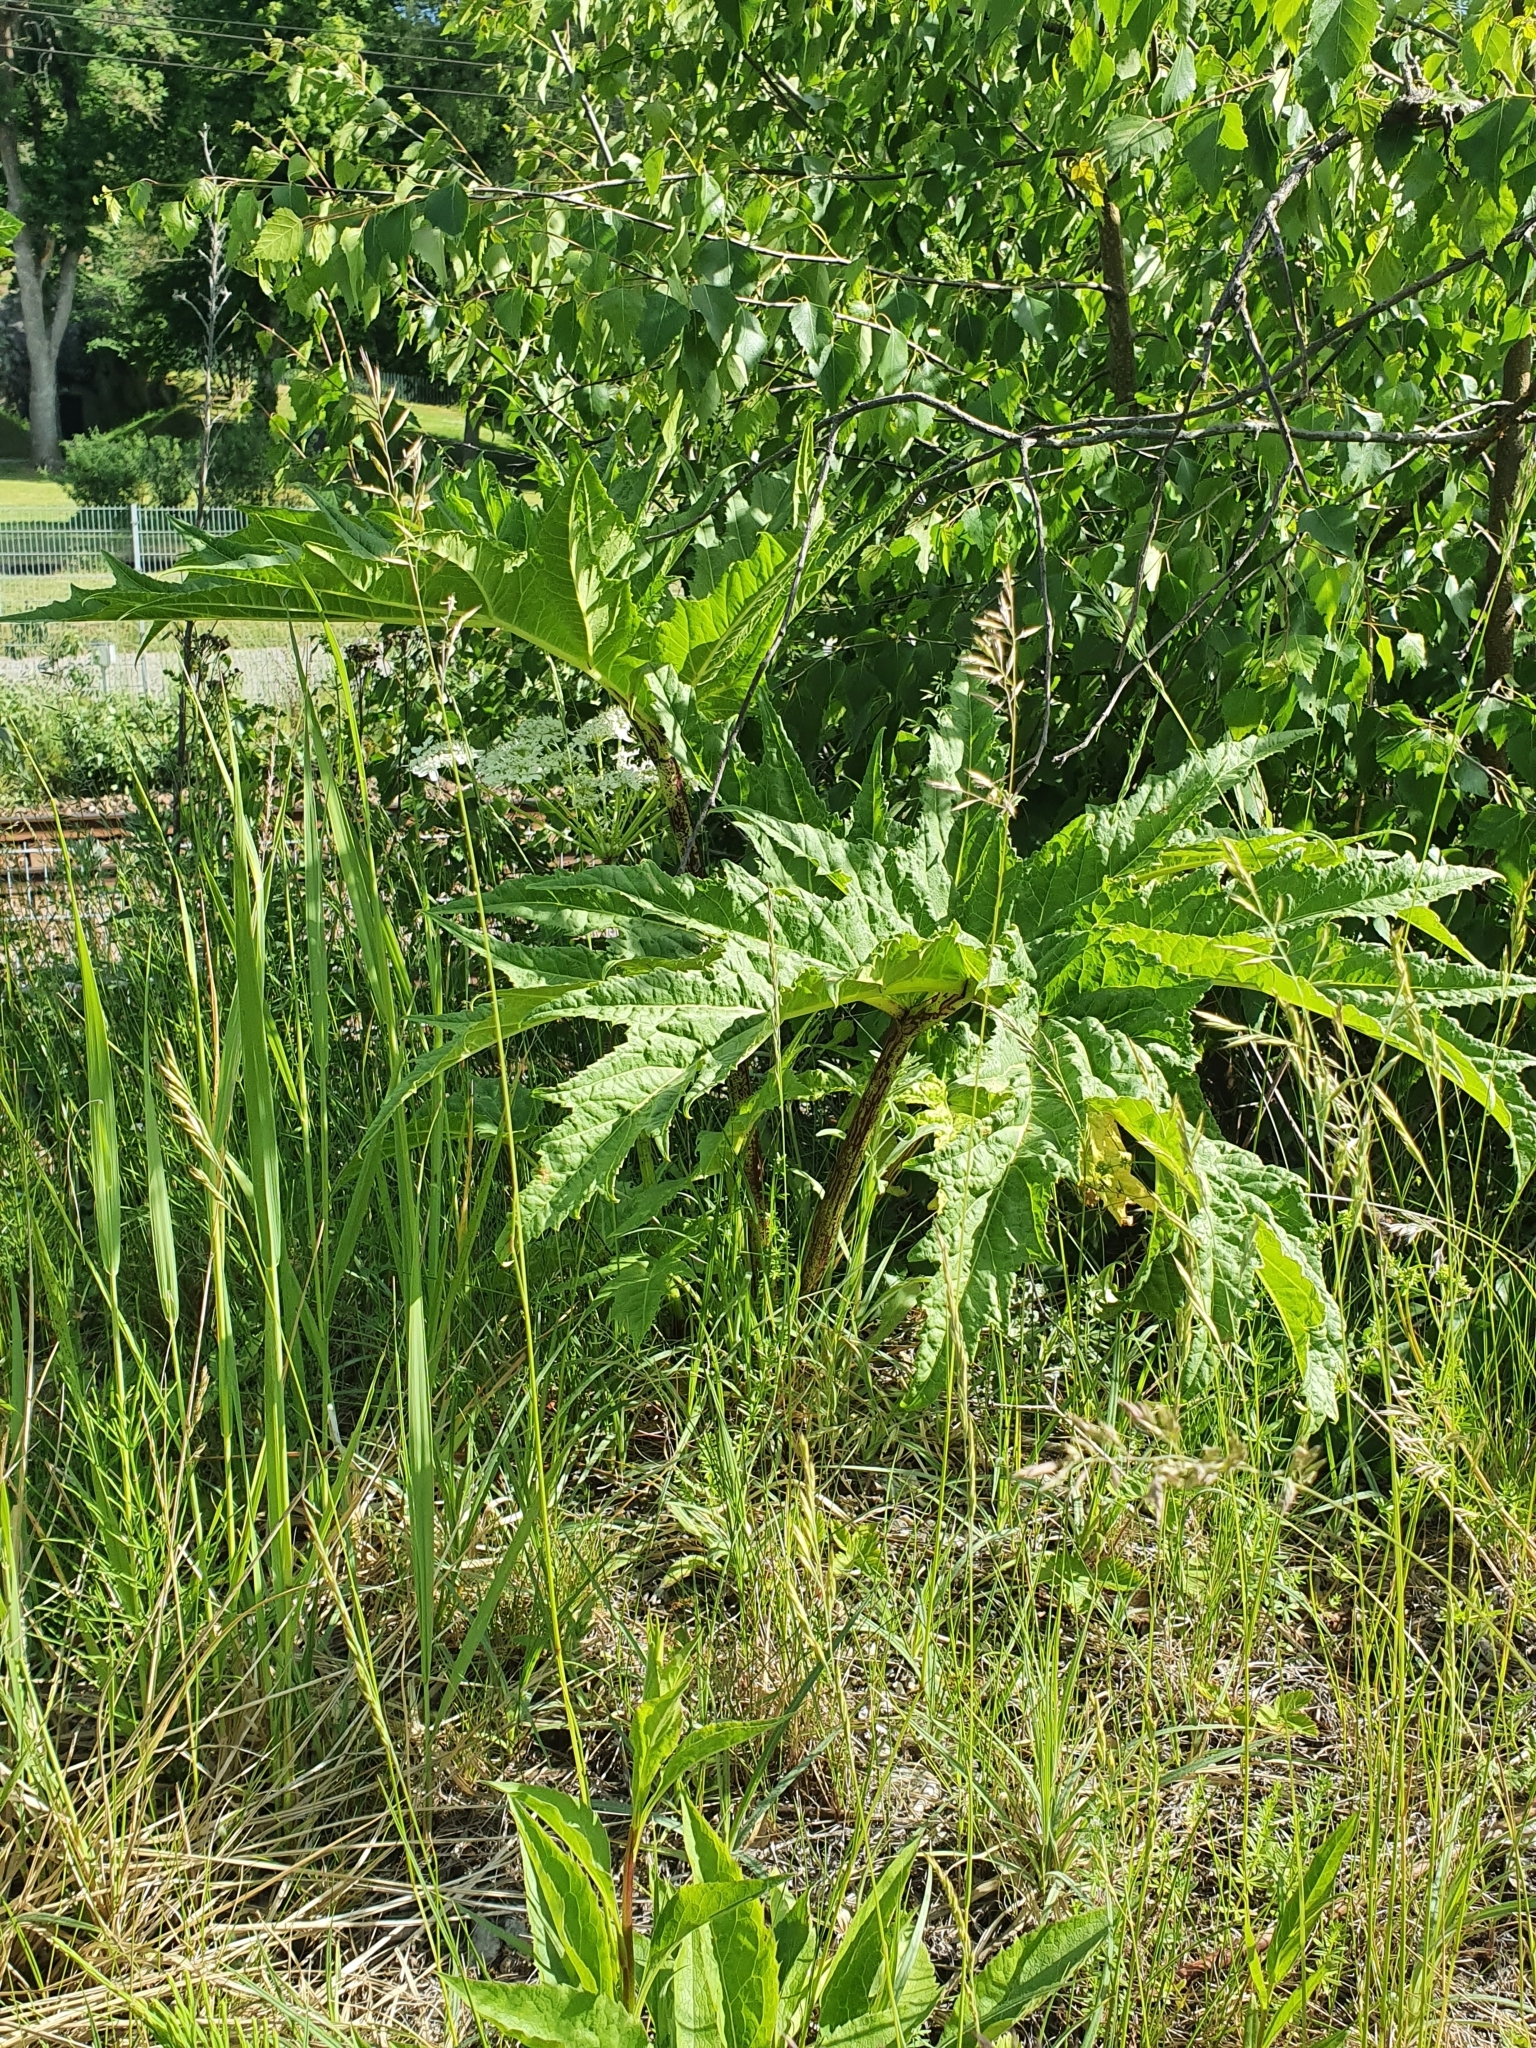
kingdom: Plantae
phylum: Tracheophyta
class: Magnoliopsida
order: Apiales
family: Apiaceae
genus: Heracleum
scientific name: Heracleum mantegazzianum
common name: Giant hogweed
